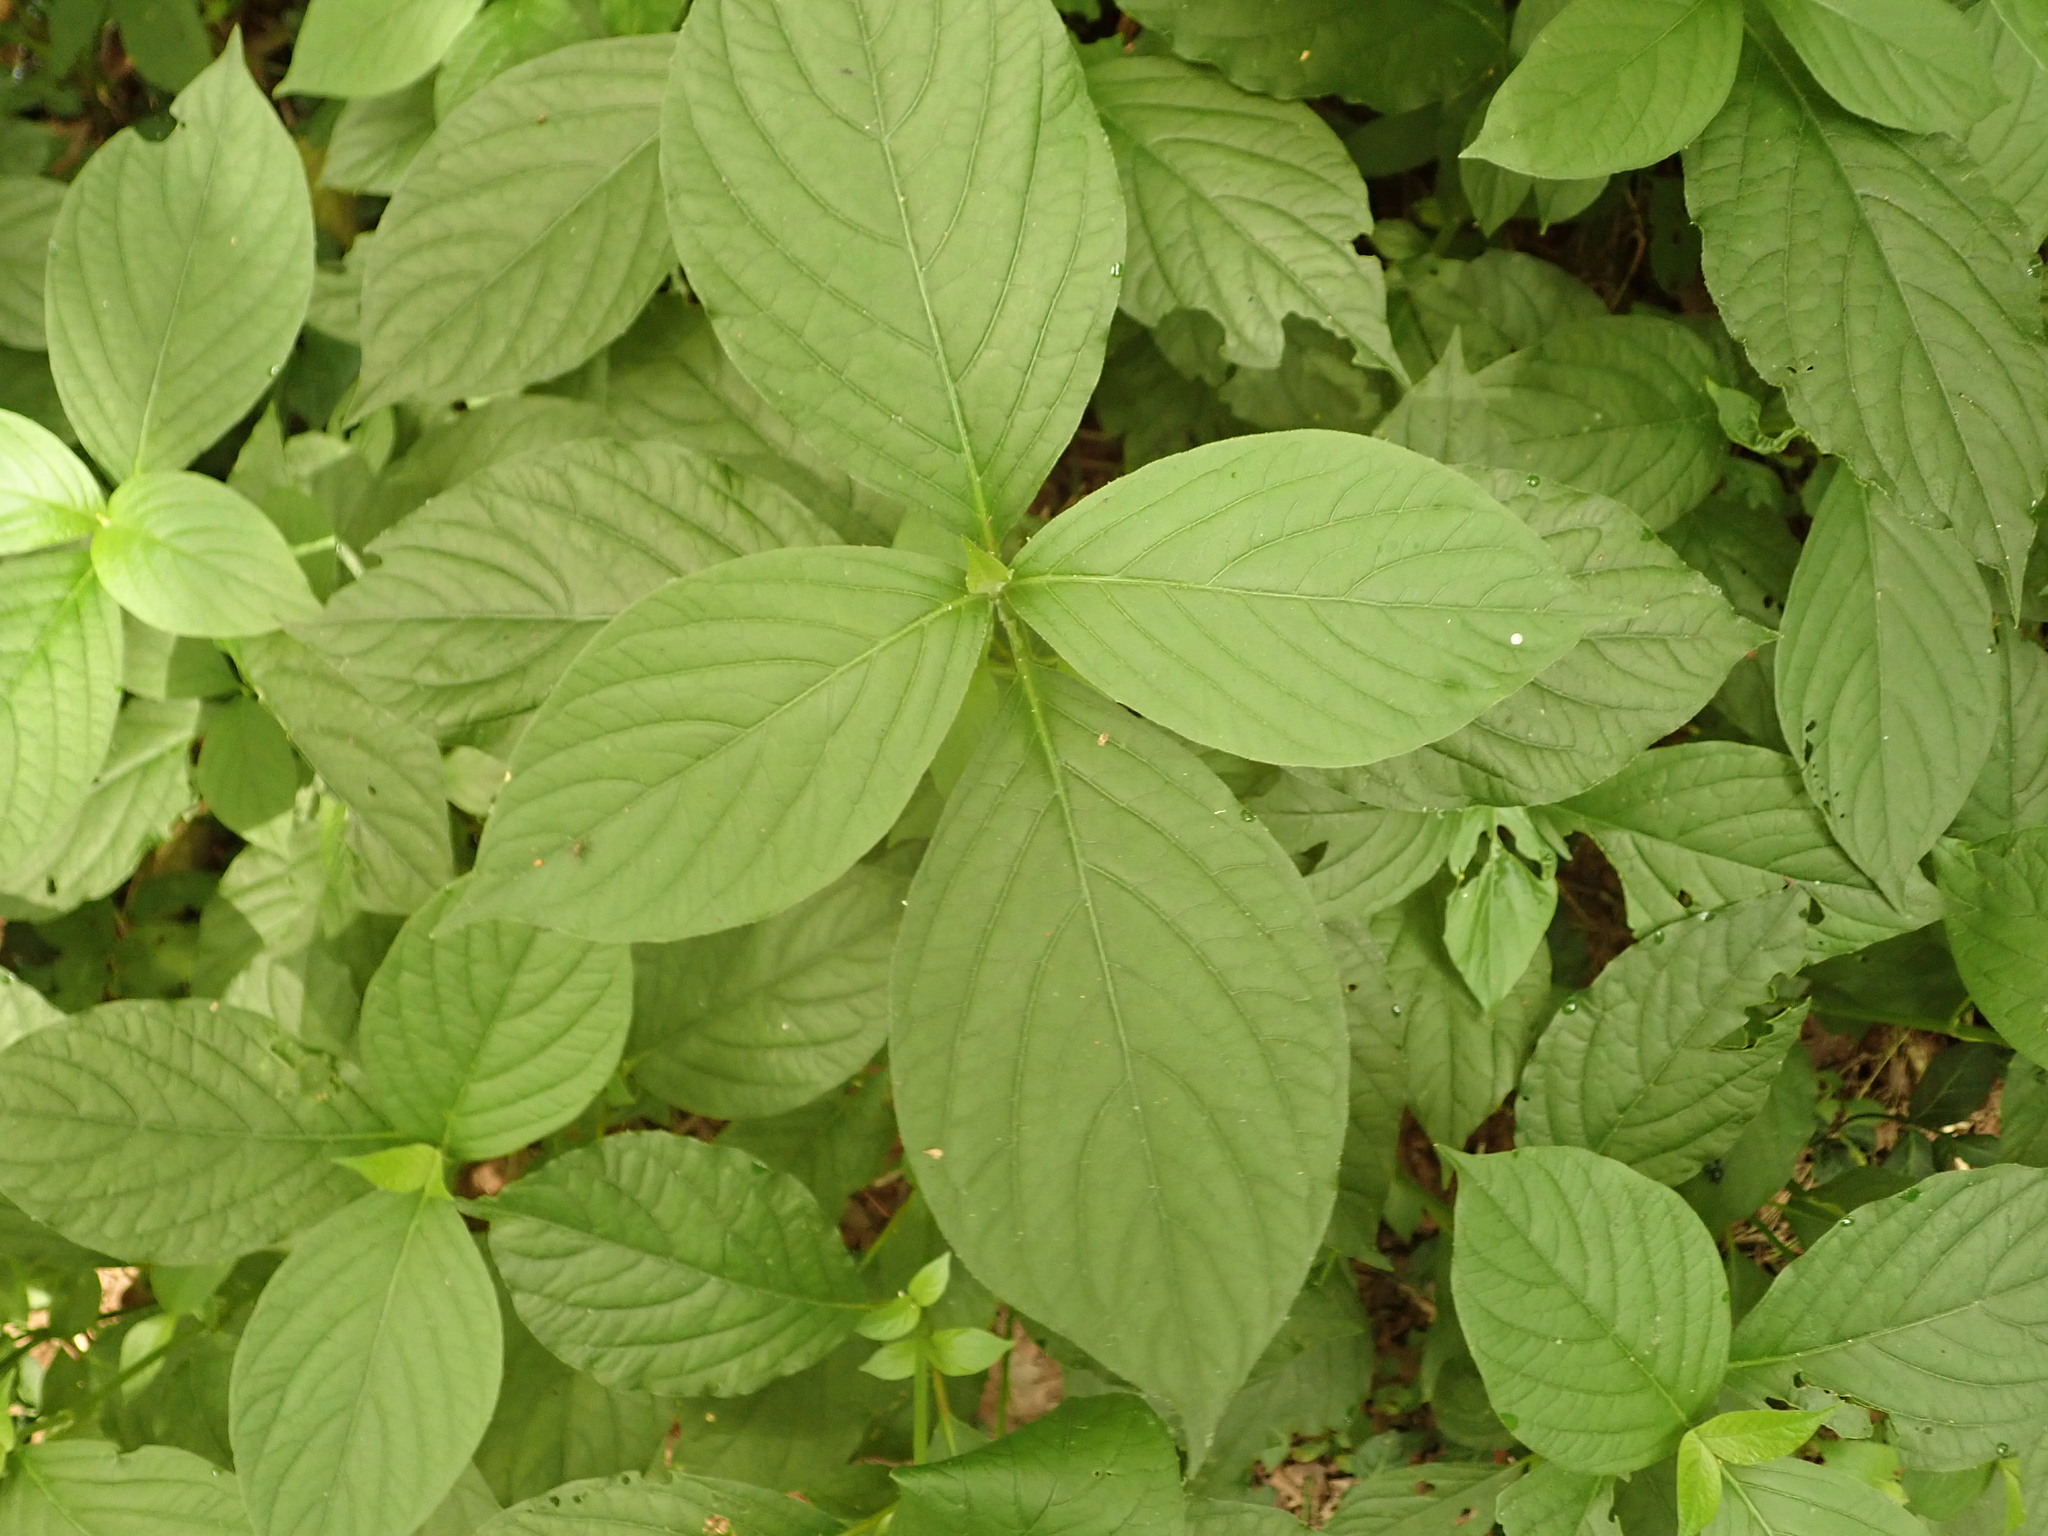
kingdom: Plantae
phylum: Tracheophyta
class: Magnoliopsida
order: Caryophyllales
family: Amaranthaceae
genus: Achyranthes
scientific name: Achyranthes bidentata
